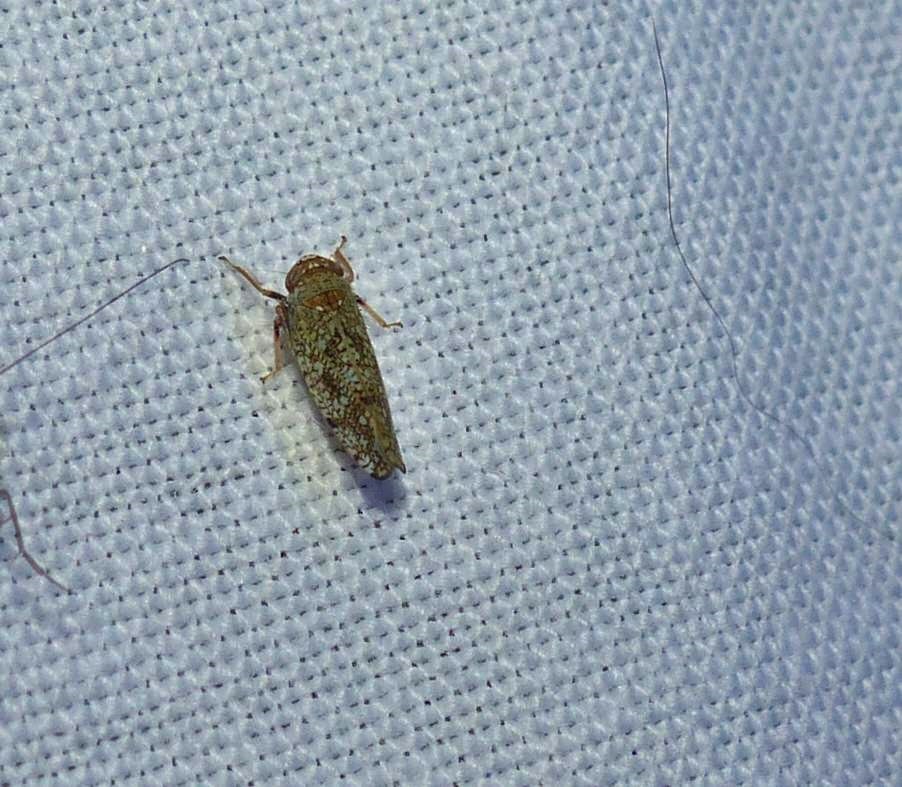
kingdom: Animalia
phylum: Arthropoda
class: Insecta
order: Hemiptera
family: Cicadellidae
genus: Orientus
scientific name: Orientus ishidae
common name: Japanese leafhopper
